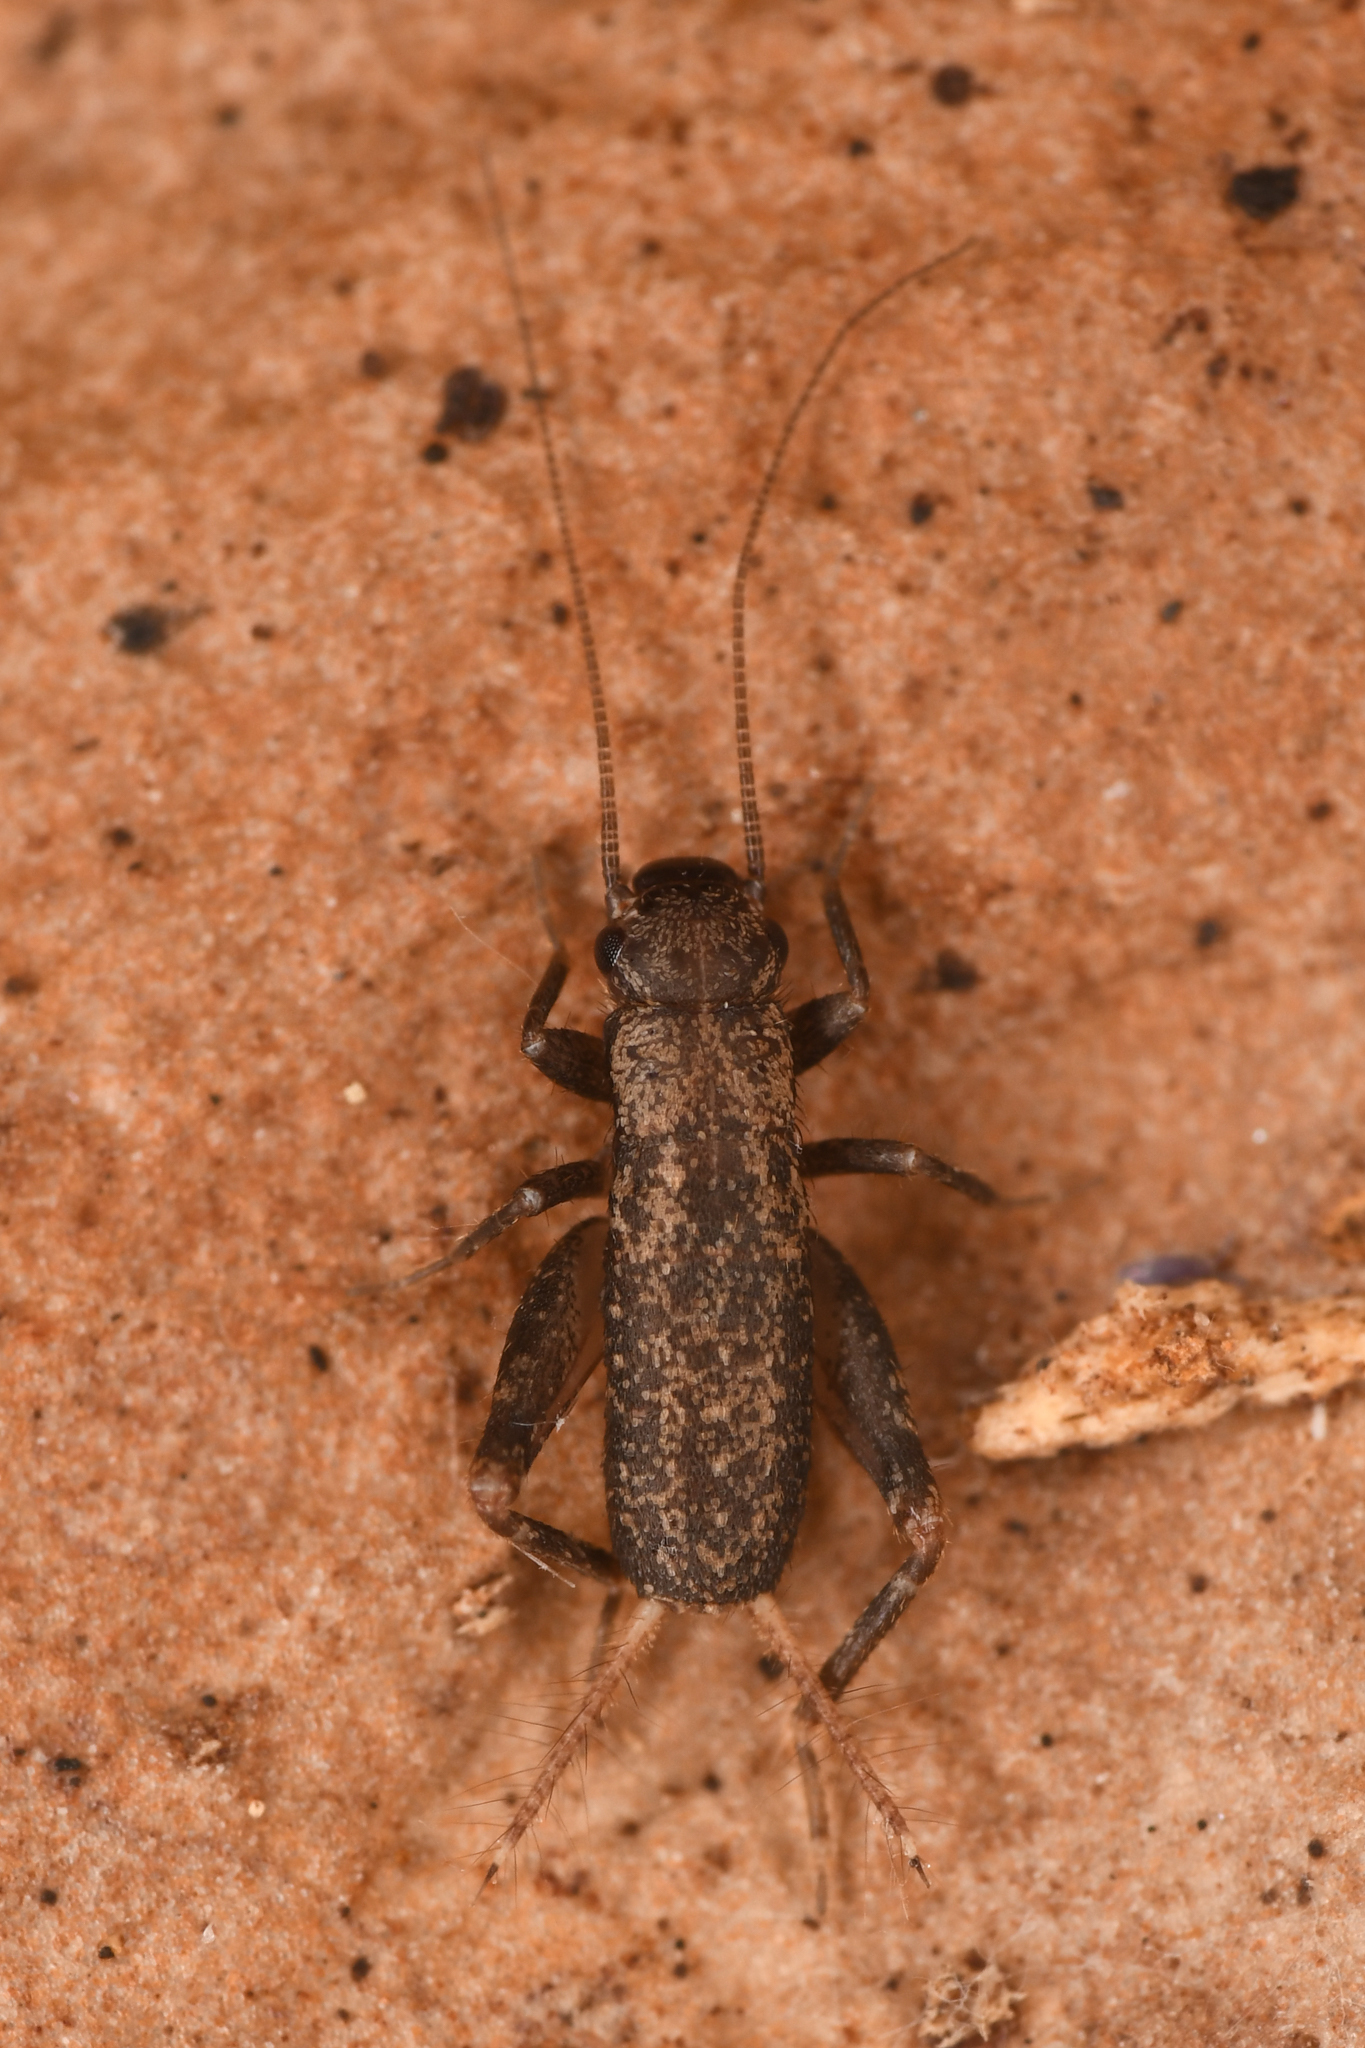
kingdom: Animalia
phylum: Arthropoda
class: Insecta
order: Orthoptera
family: Mogoplistidae
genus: Hoplosphyrum
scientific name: Hoplosphyrum boreale
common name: Long-winged scaly cricket
